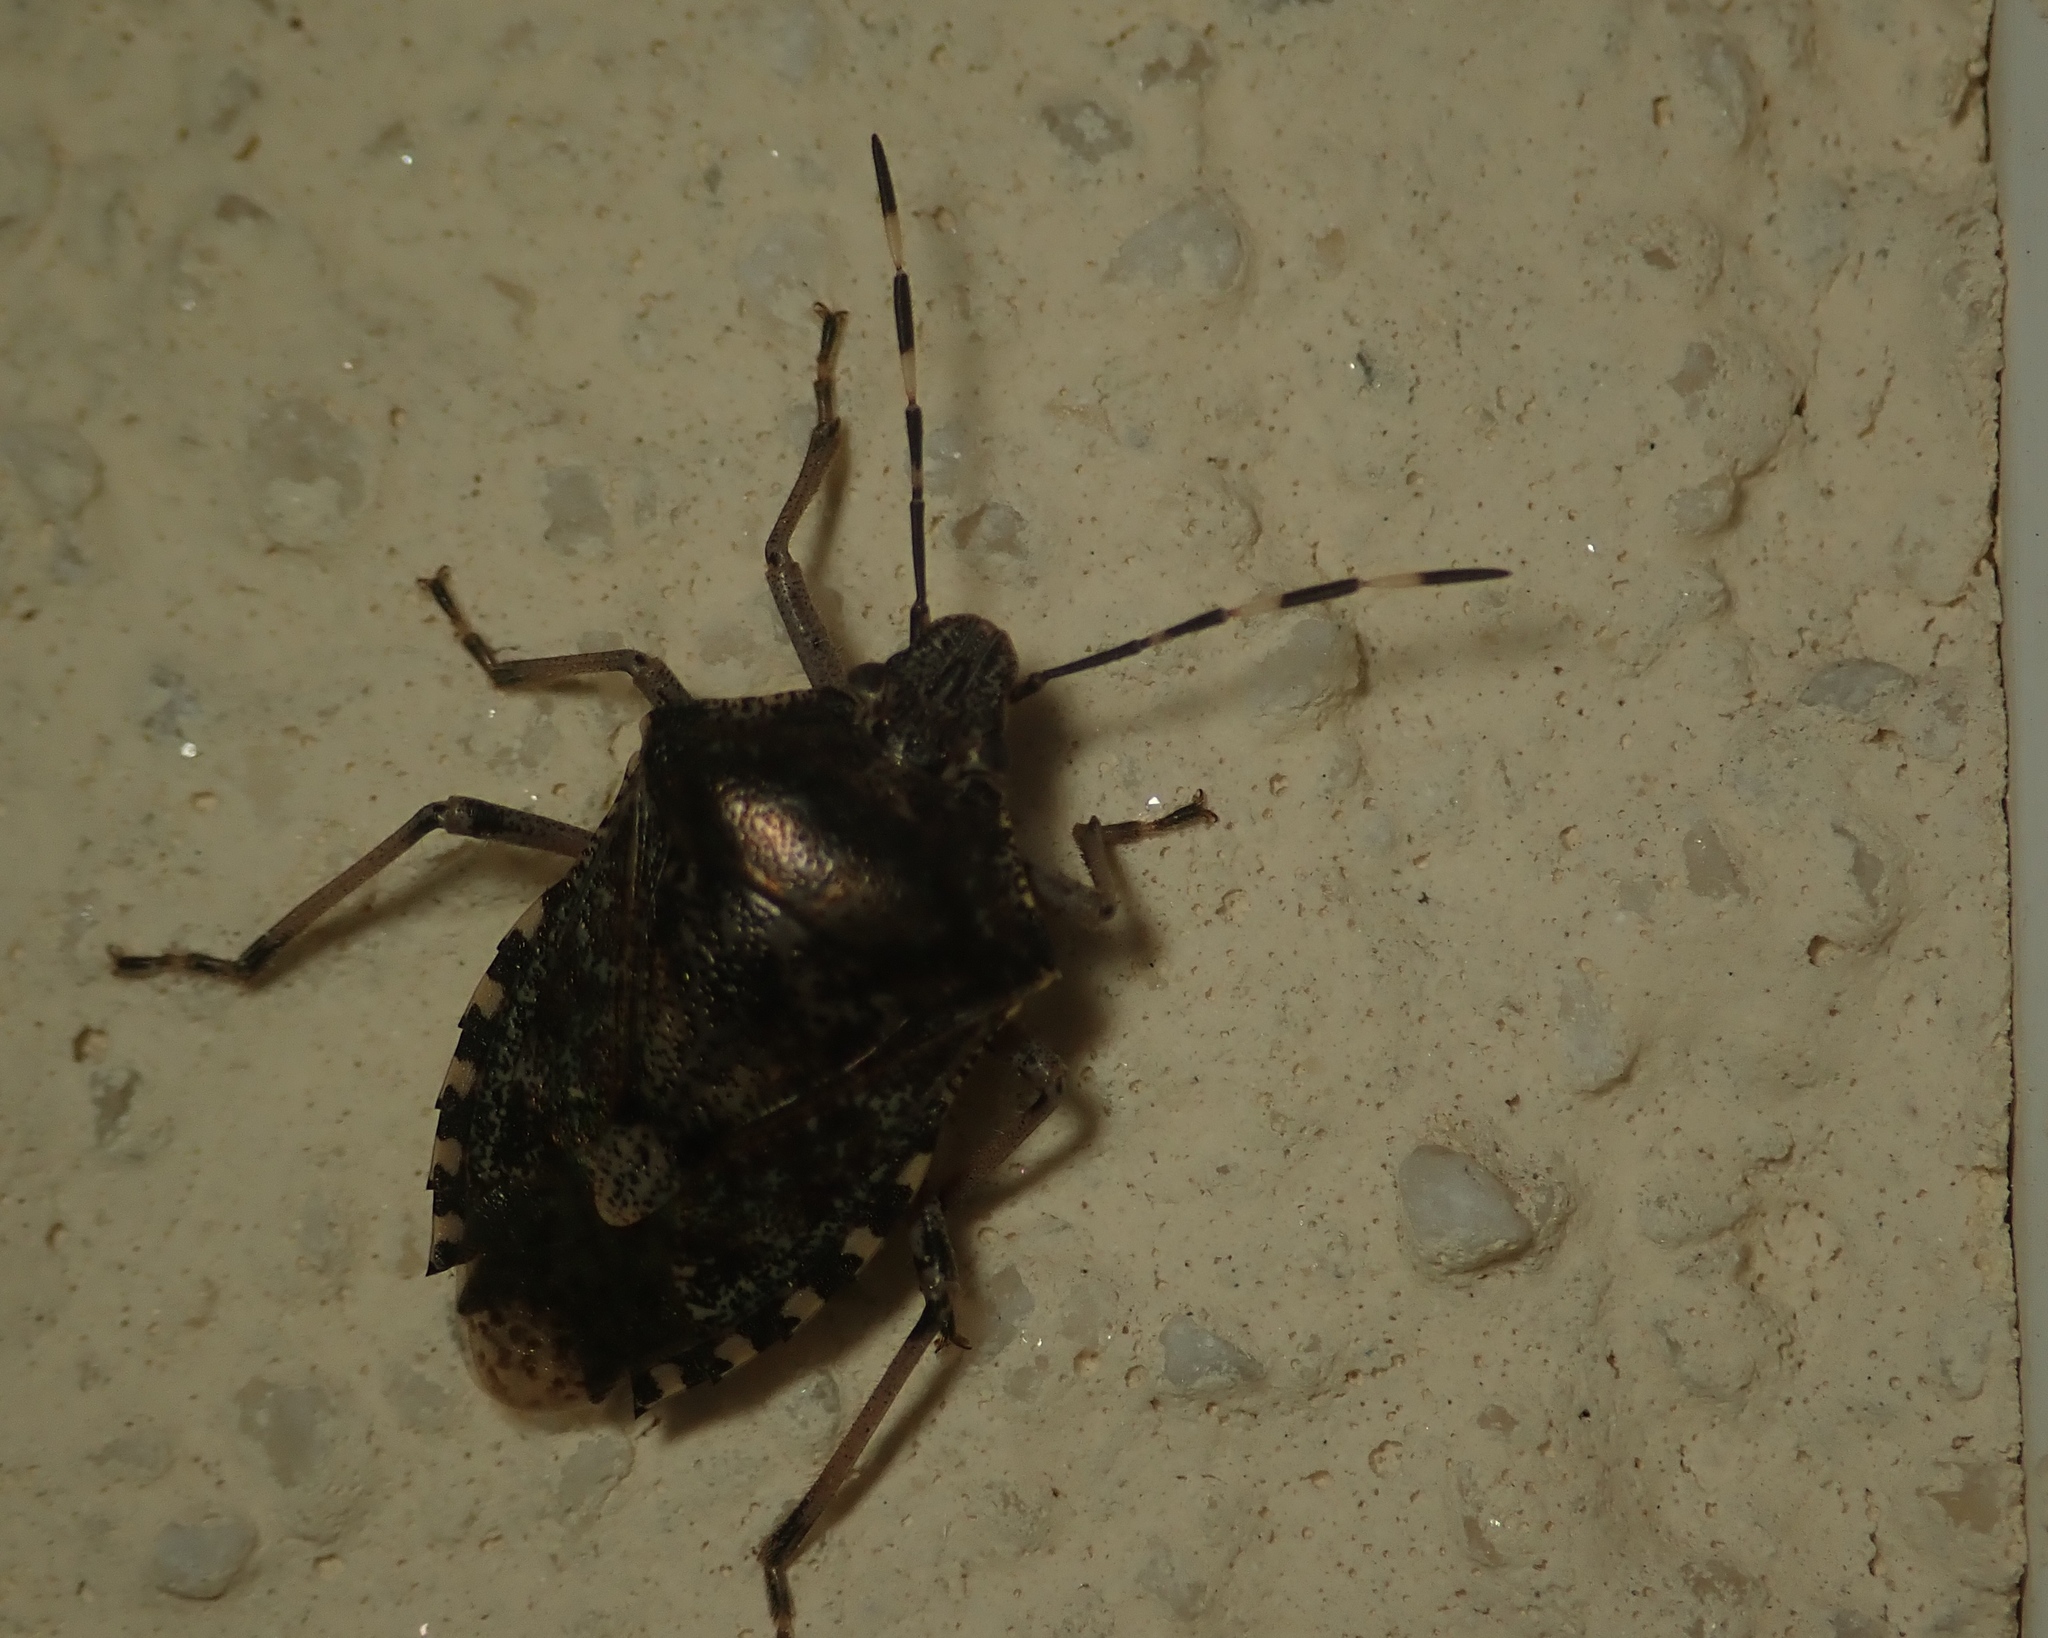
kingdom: Animalia
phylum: Arthropoda
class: Insecta
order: Hemiptera
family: Pentatomidae
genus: Rhaphigaster
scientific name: Rhaphigaster nebulosa
